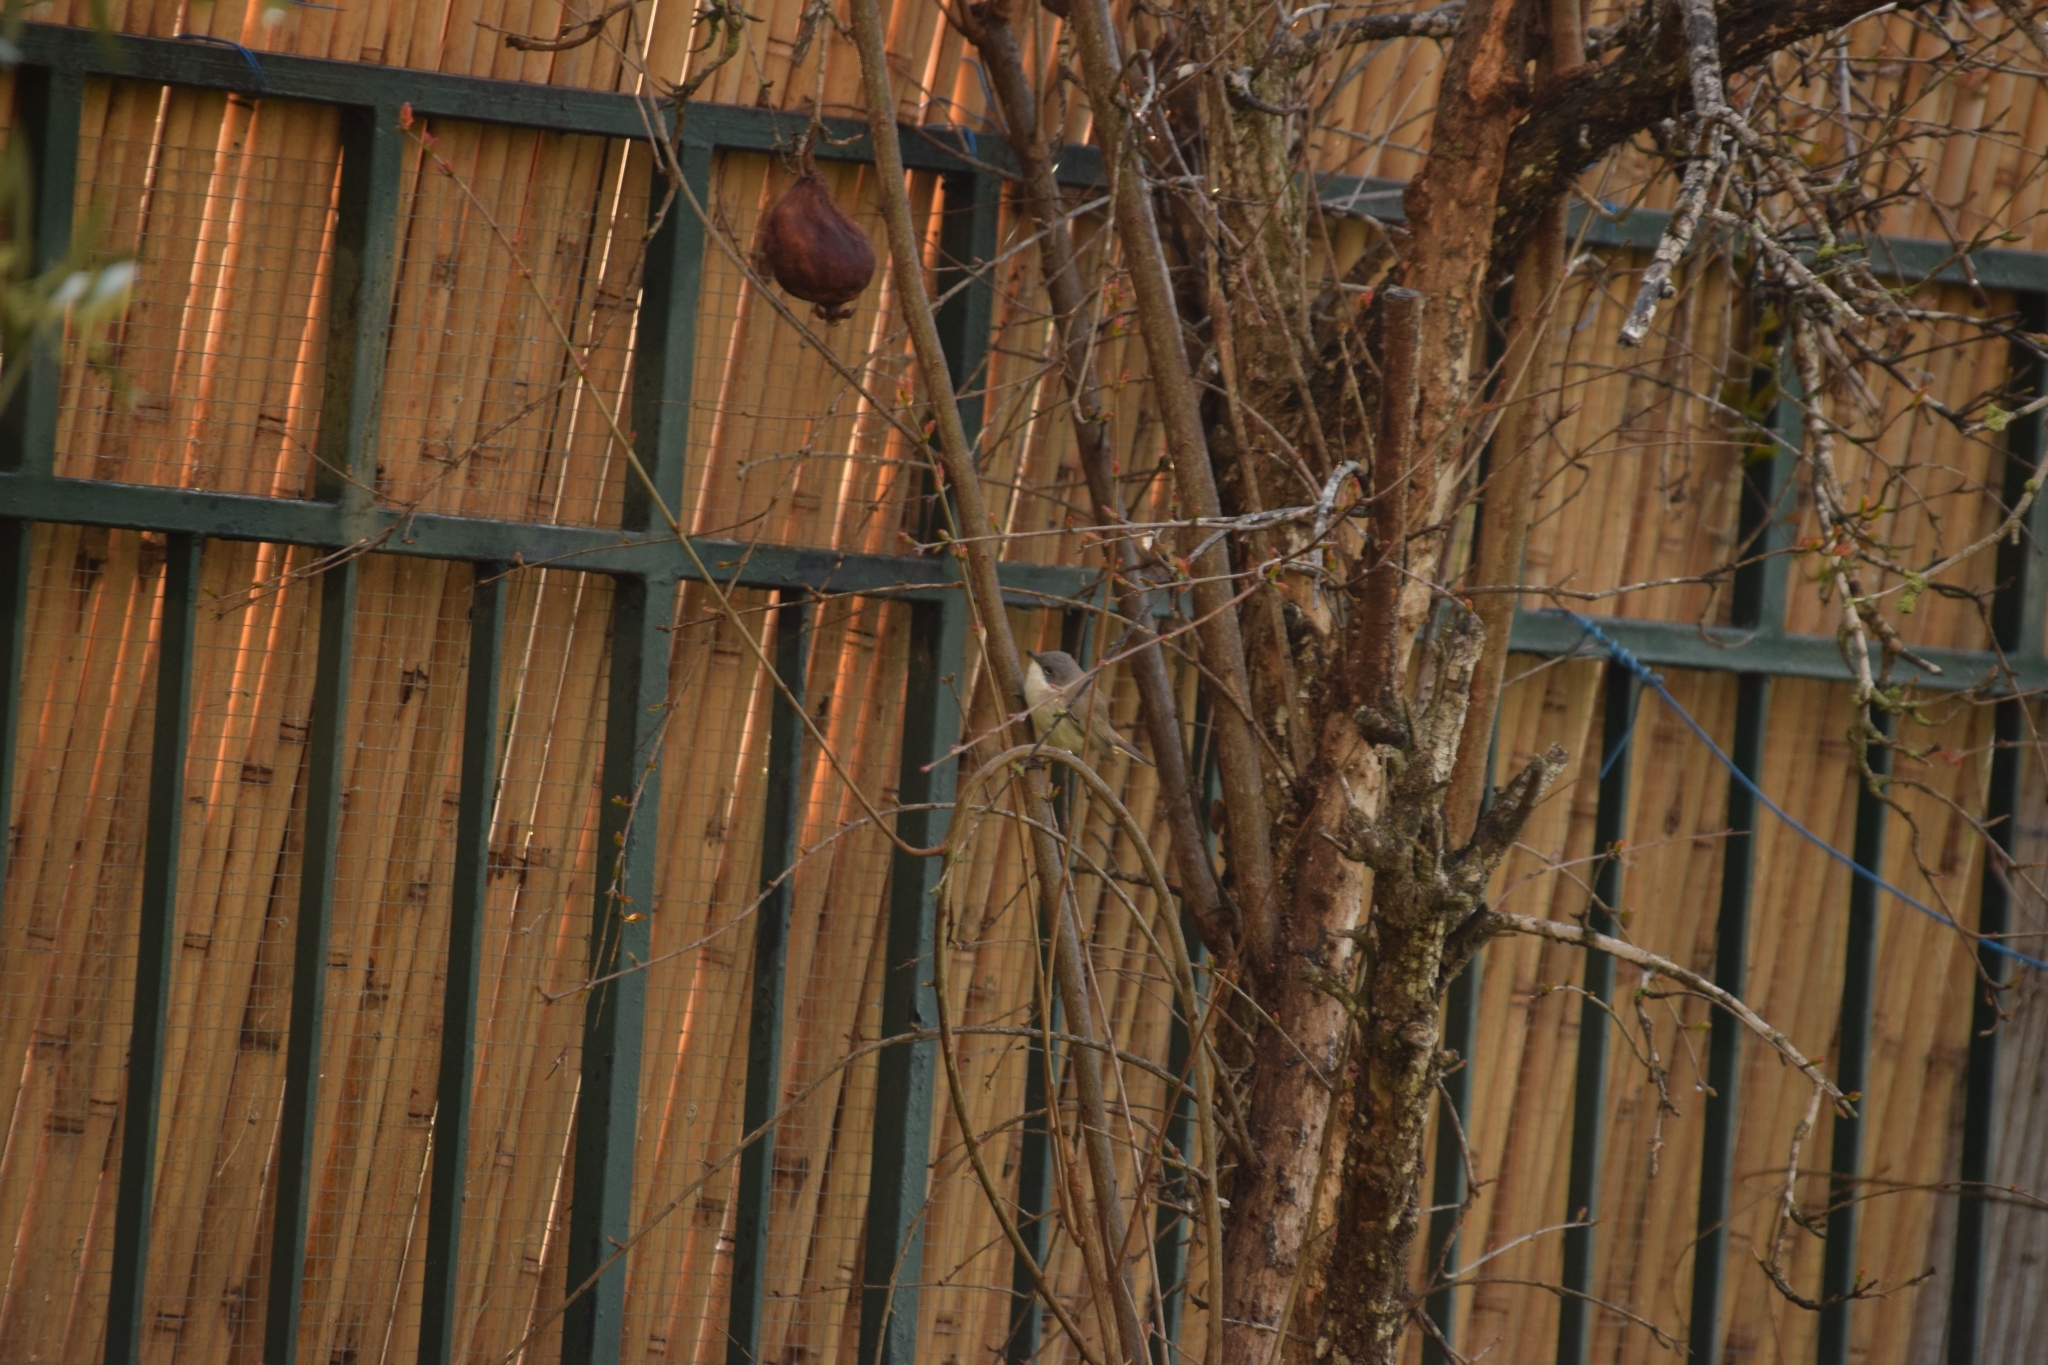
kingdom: Animalia
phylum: Chordata
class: Aves
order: Passeriformes
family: Sylviidae
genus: Sylvia
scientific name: Sylvia curruca
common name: Lesser whitethroat
